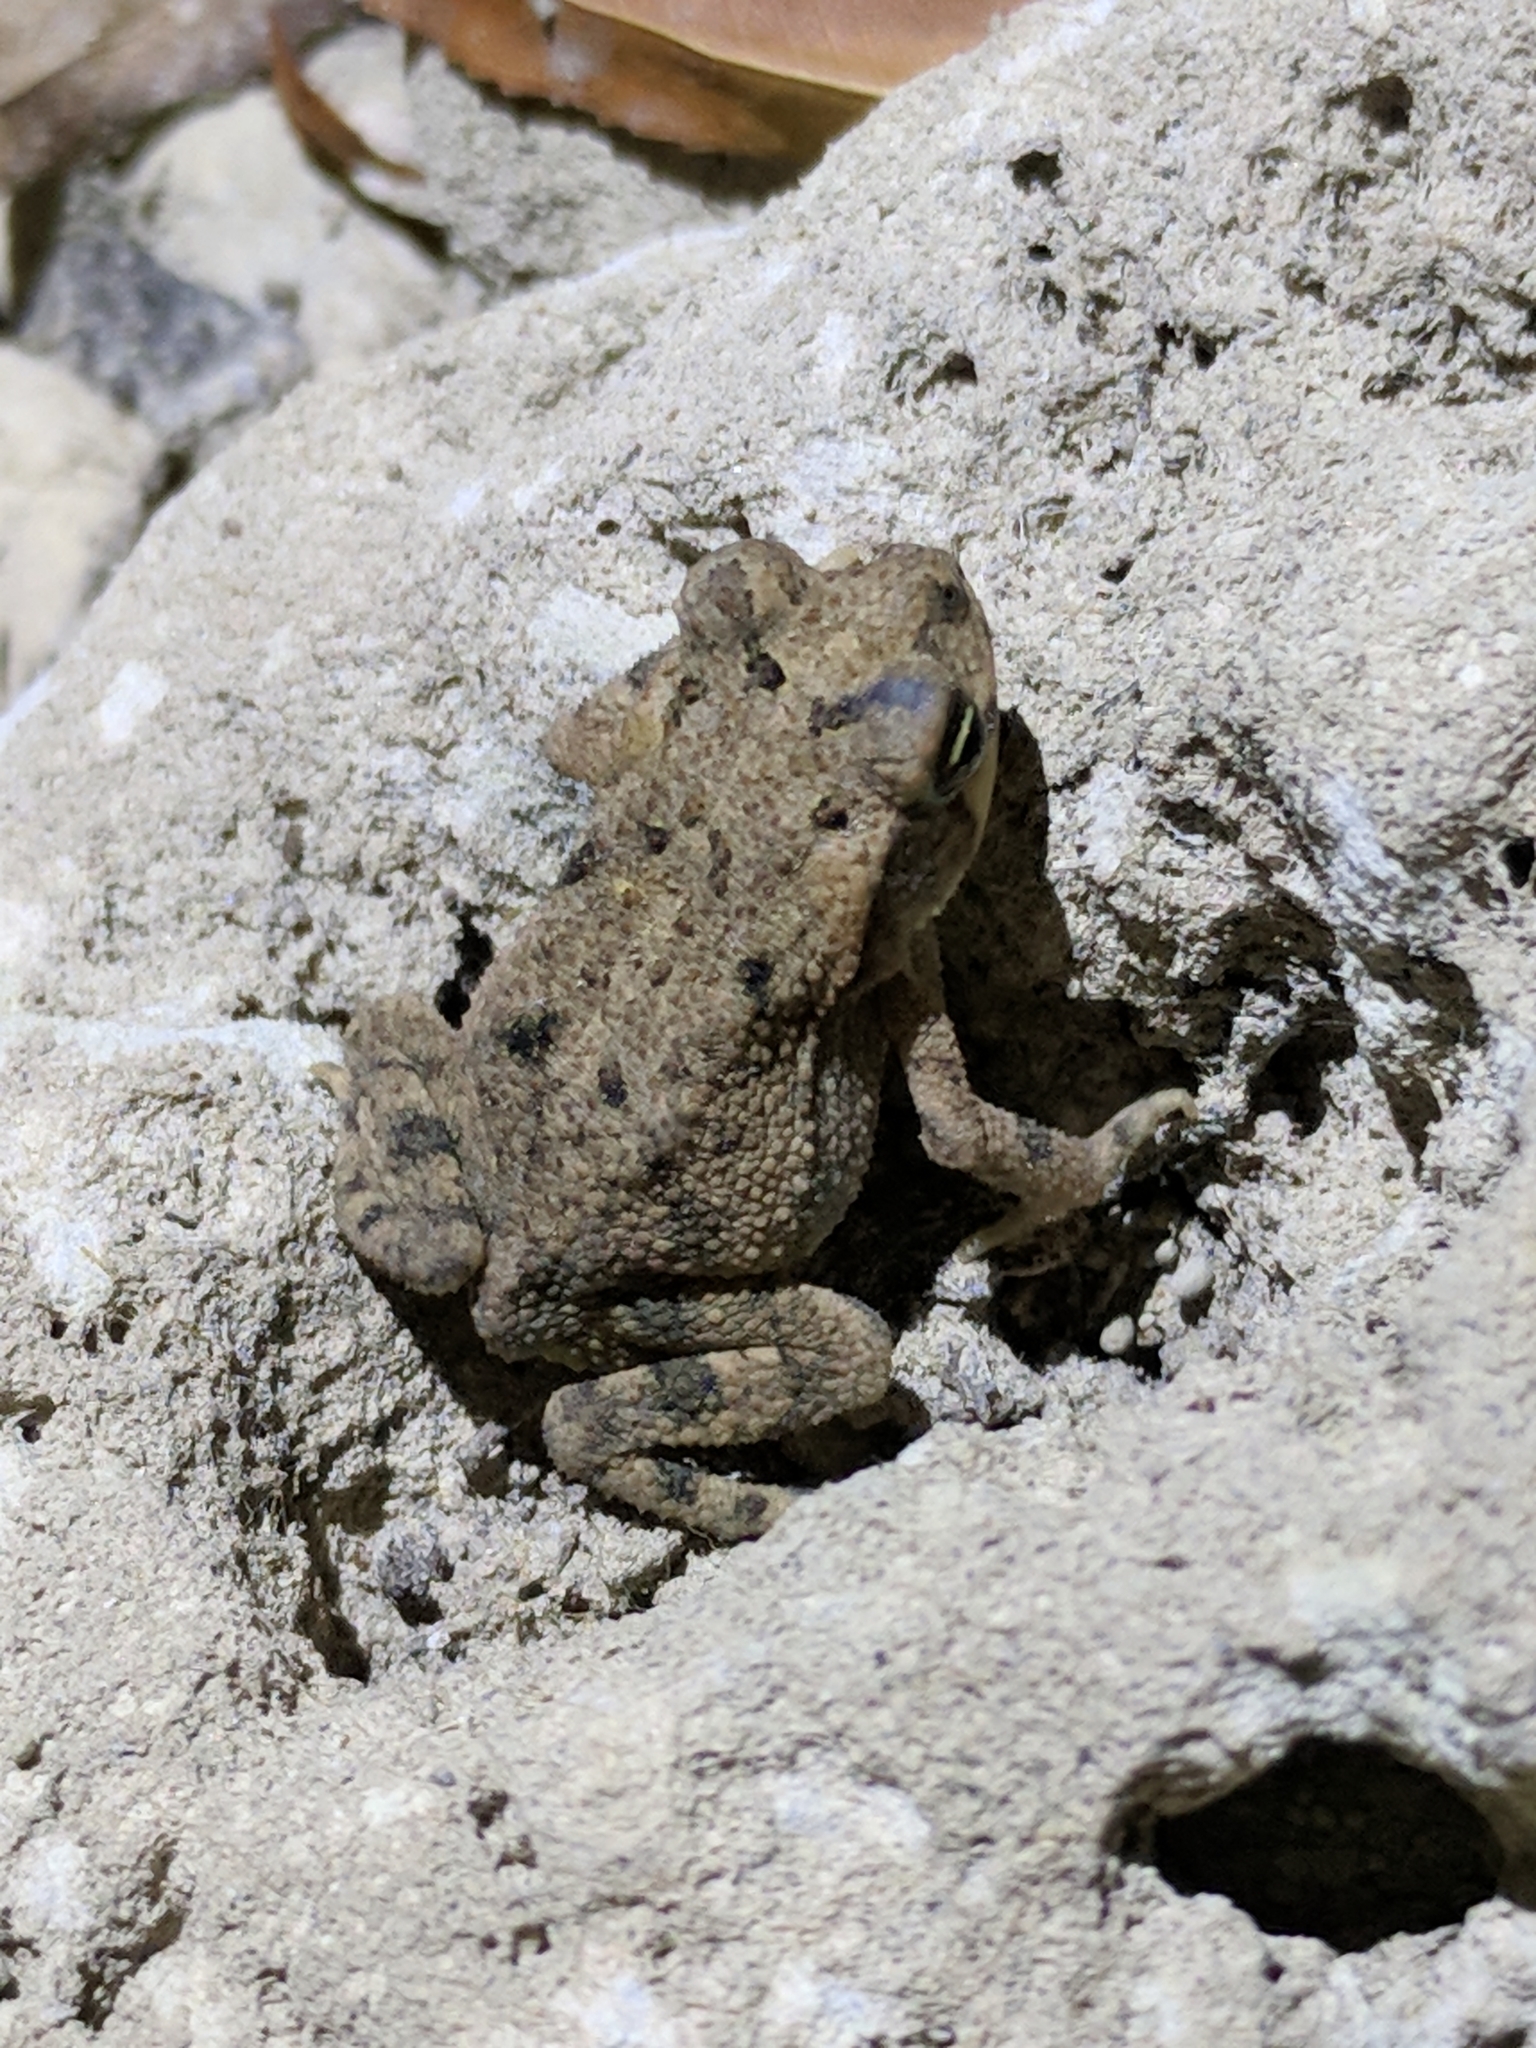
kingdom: Animalia
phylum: Chordata
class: Amphibia
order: Anura
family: Bufonidae
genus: Incilius
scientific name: Incilius nebulifer
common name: Gulf coast toad
